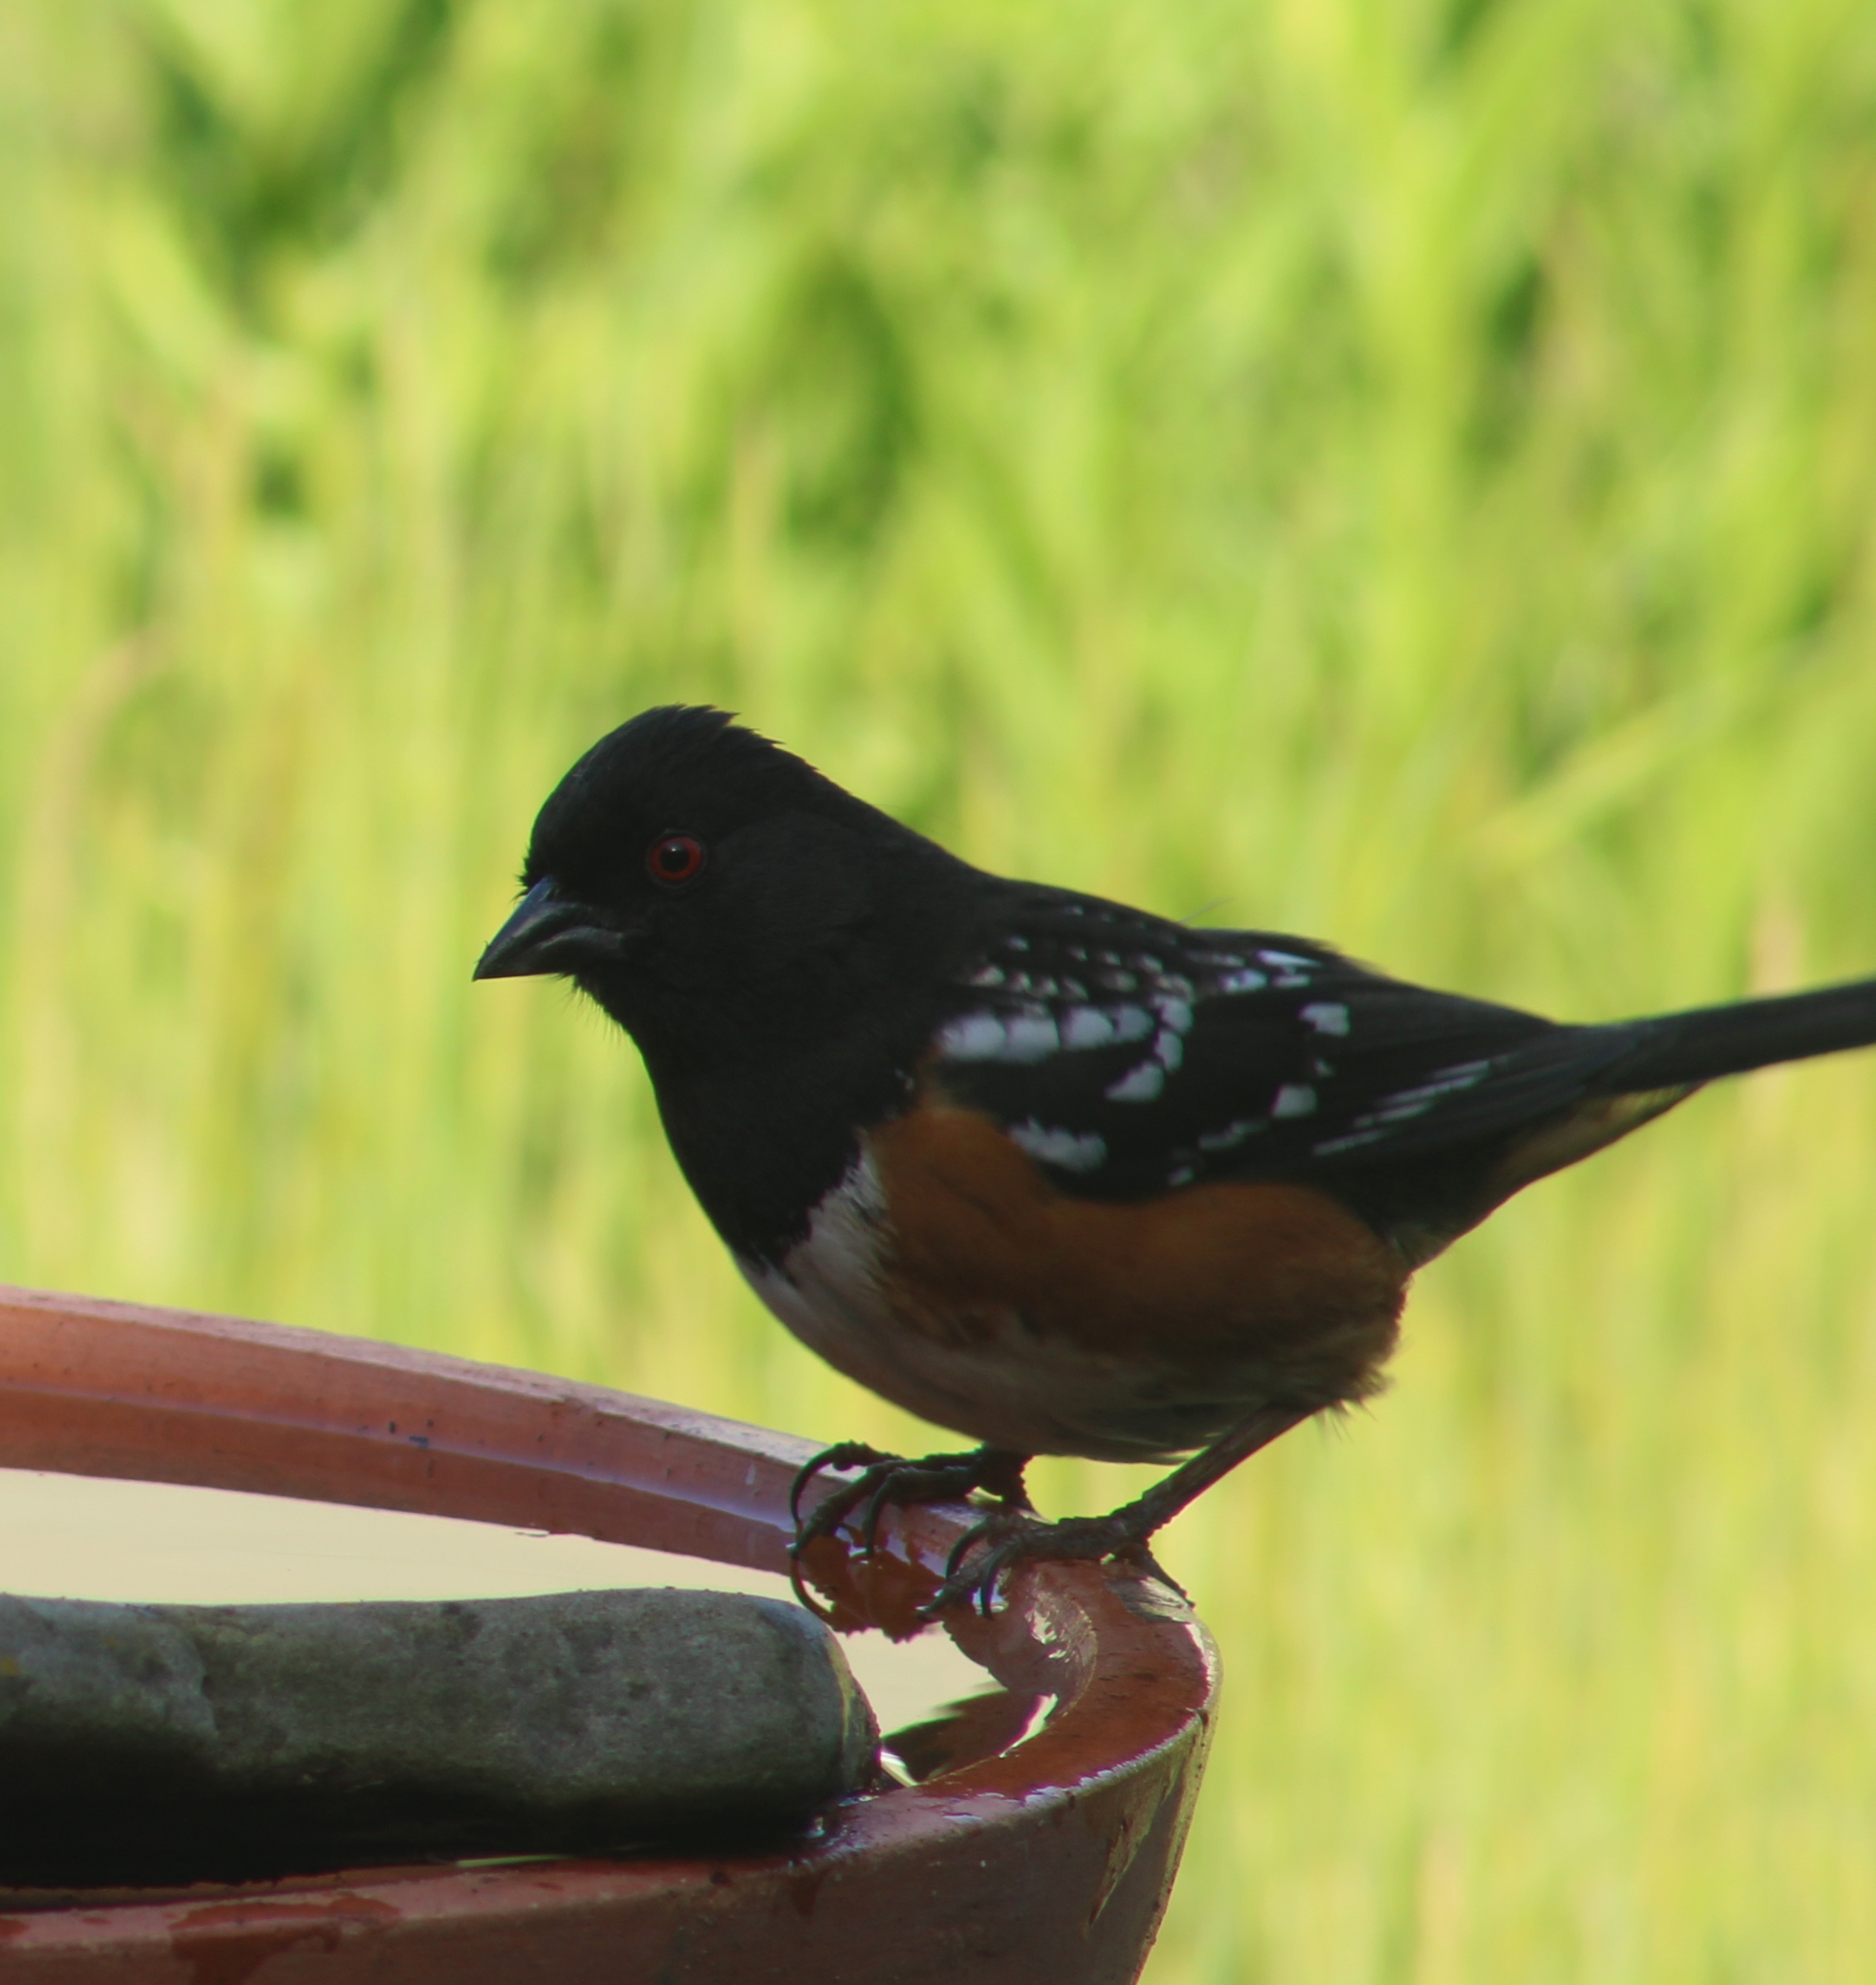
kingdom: Animalia
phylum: Chordata
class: Aves
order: Passeriformes
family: Passerellidae
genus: Pipilo
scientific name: Pipilo maculatus
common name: Spotted towhee
